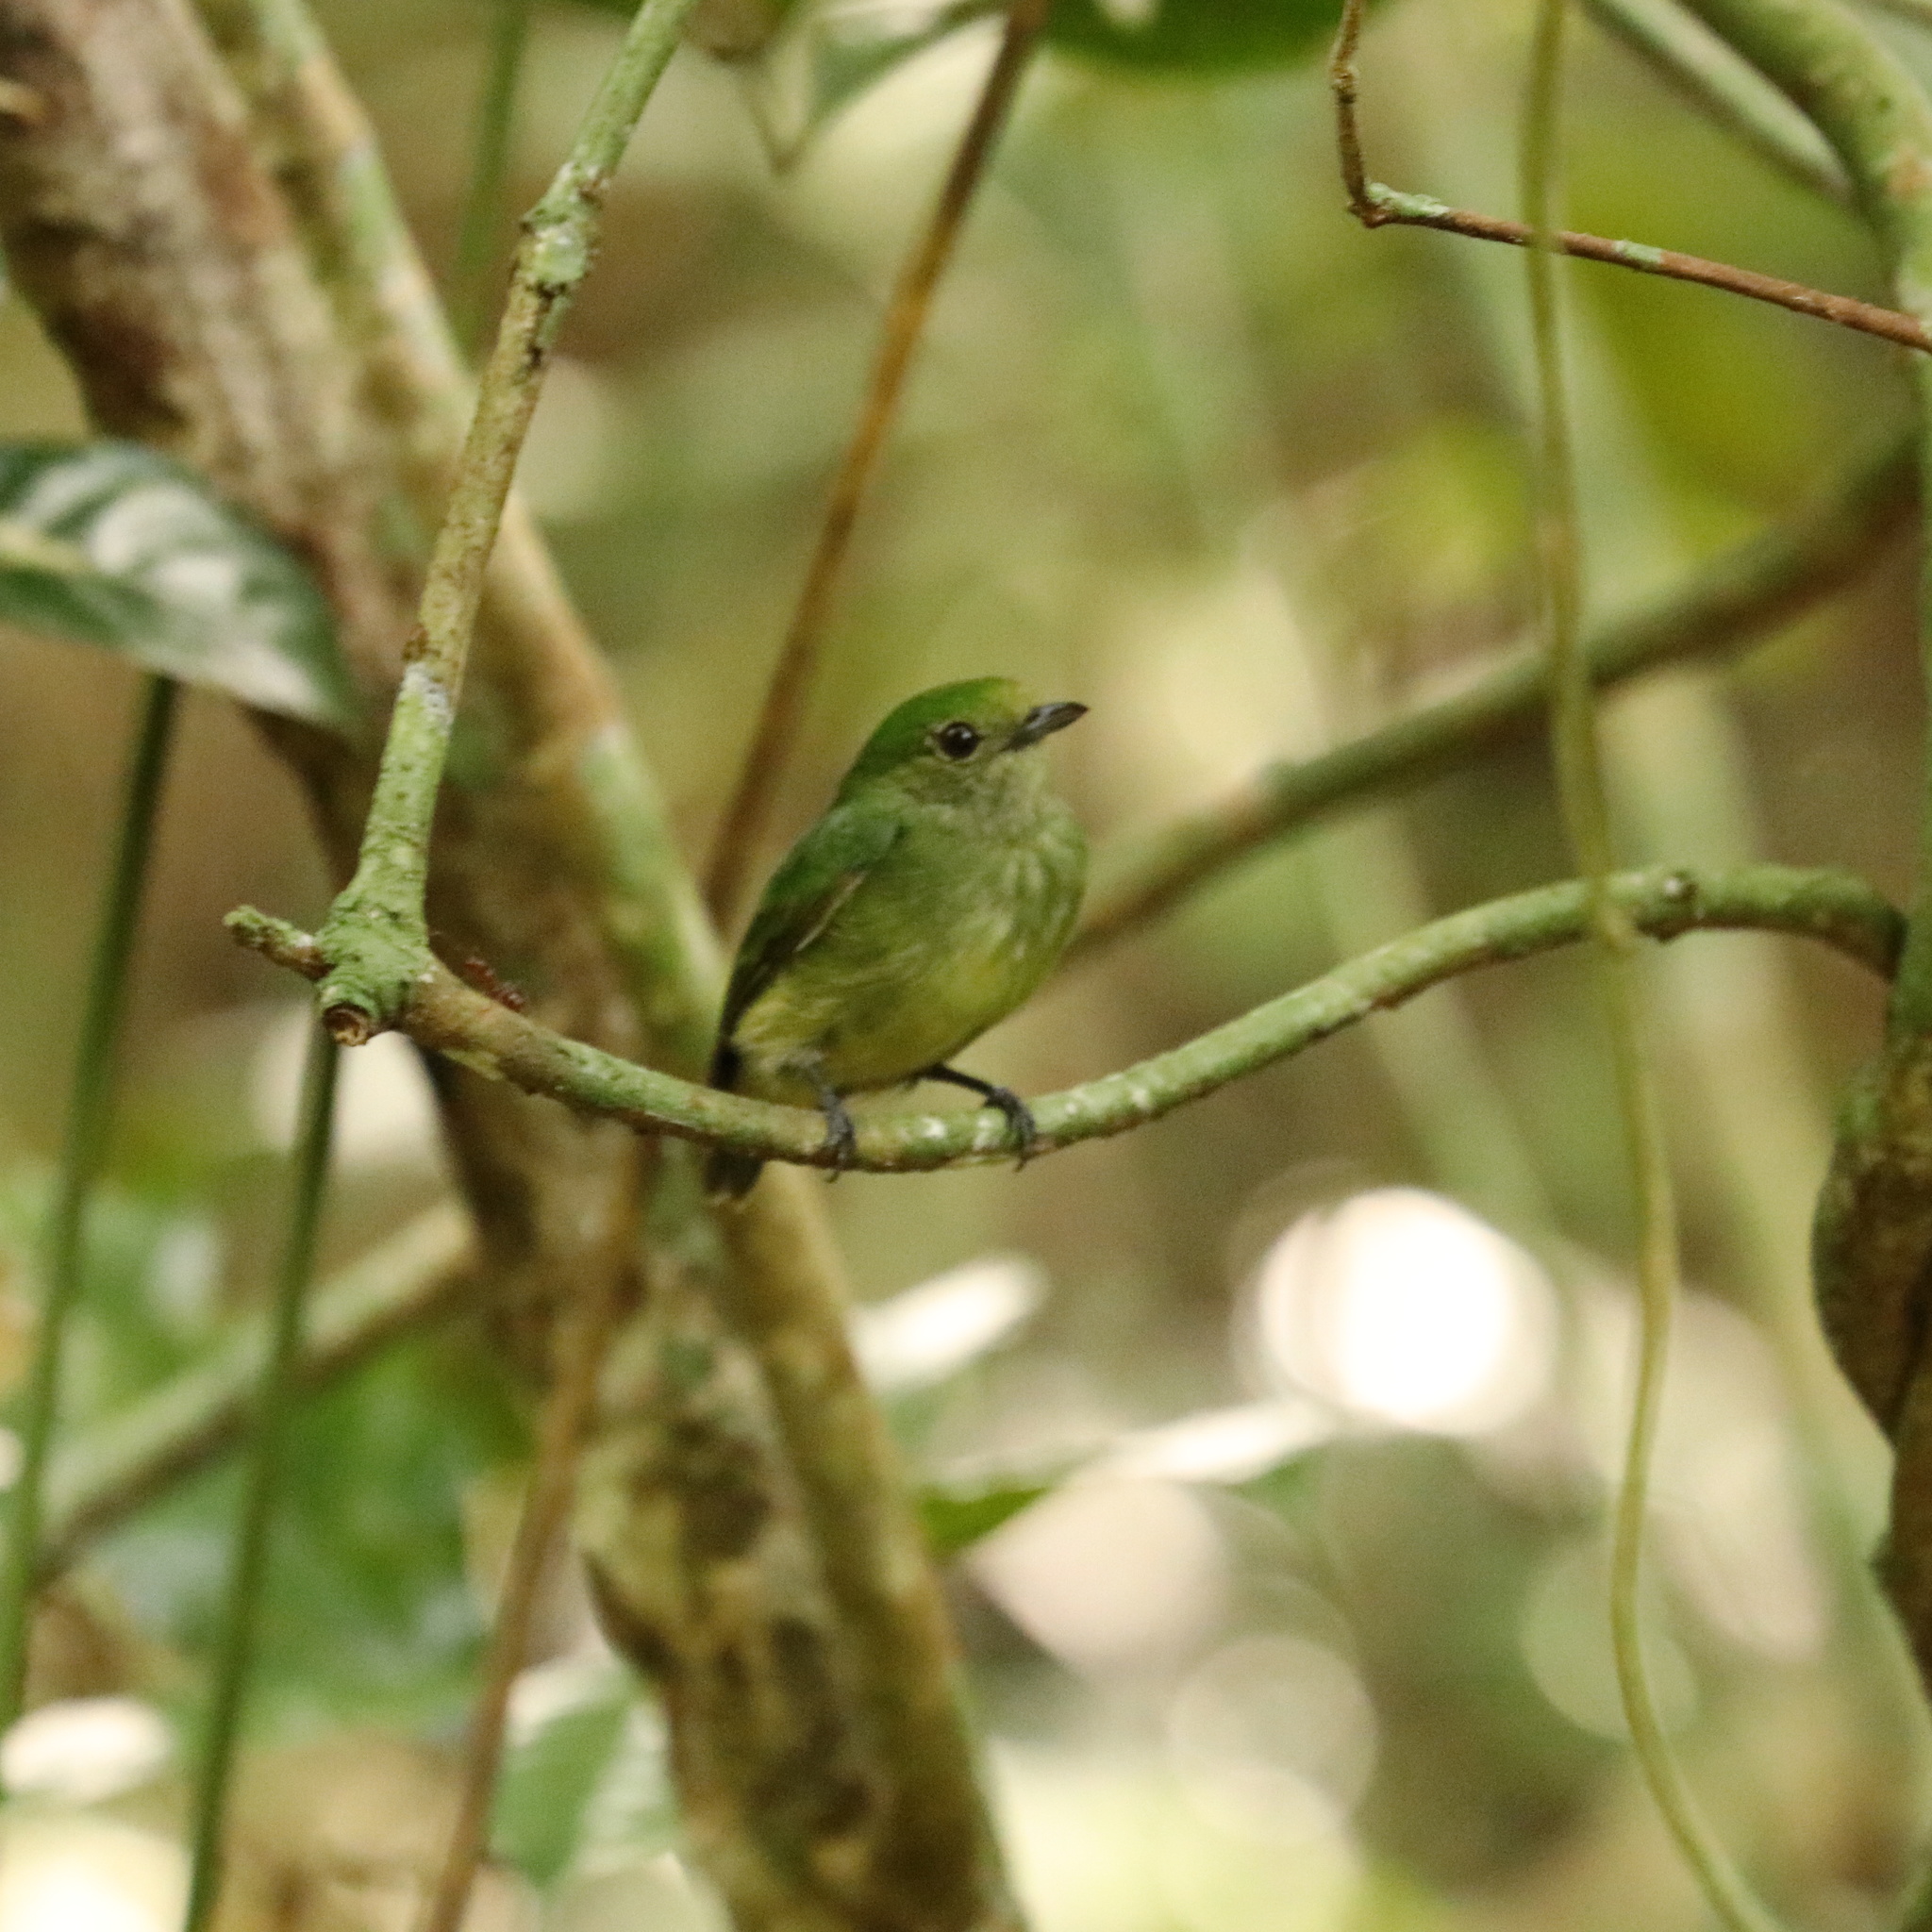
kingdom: Animalia
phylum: Chordata
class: Aves
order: Passeriformes
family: Pipridae
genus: Lepidothrix
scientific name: Lepidothrix coronata
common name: Blue-crowned manakin
